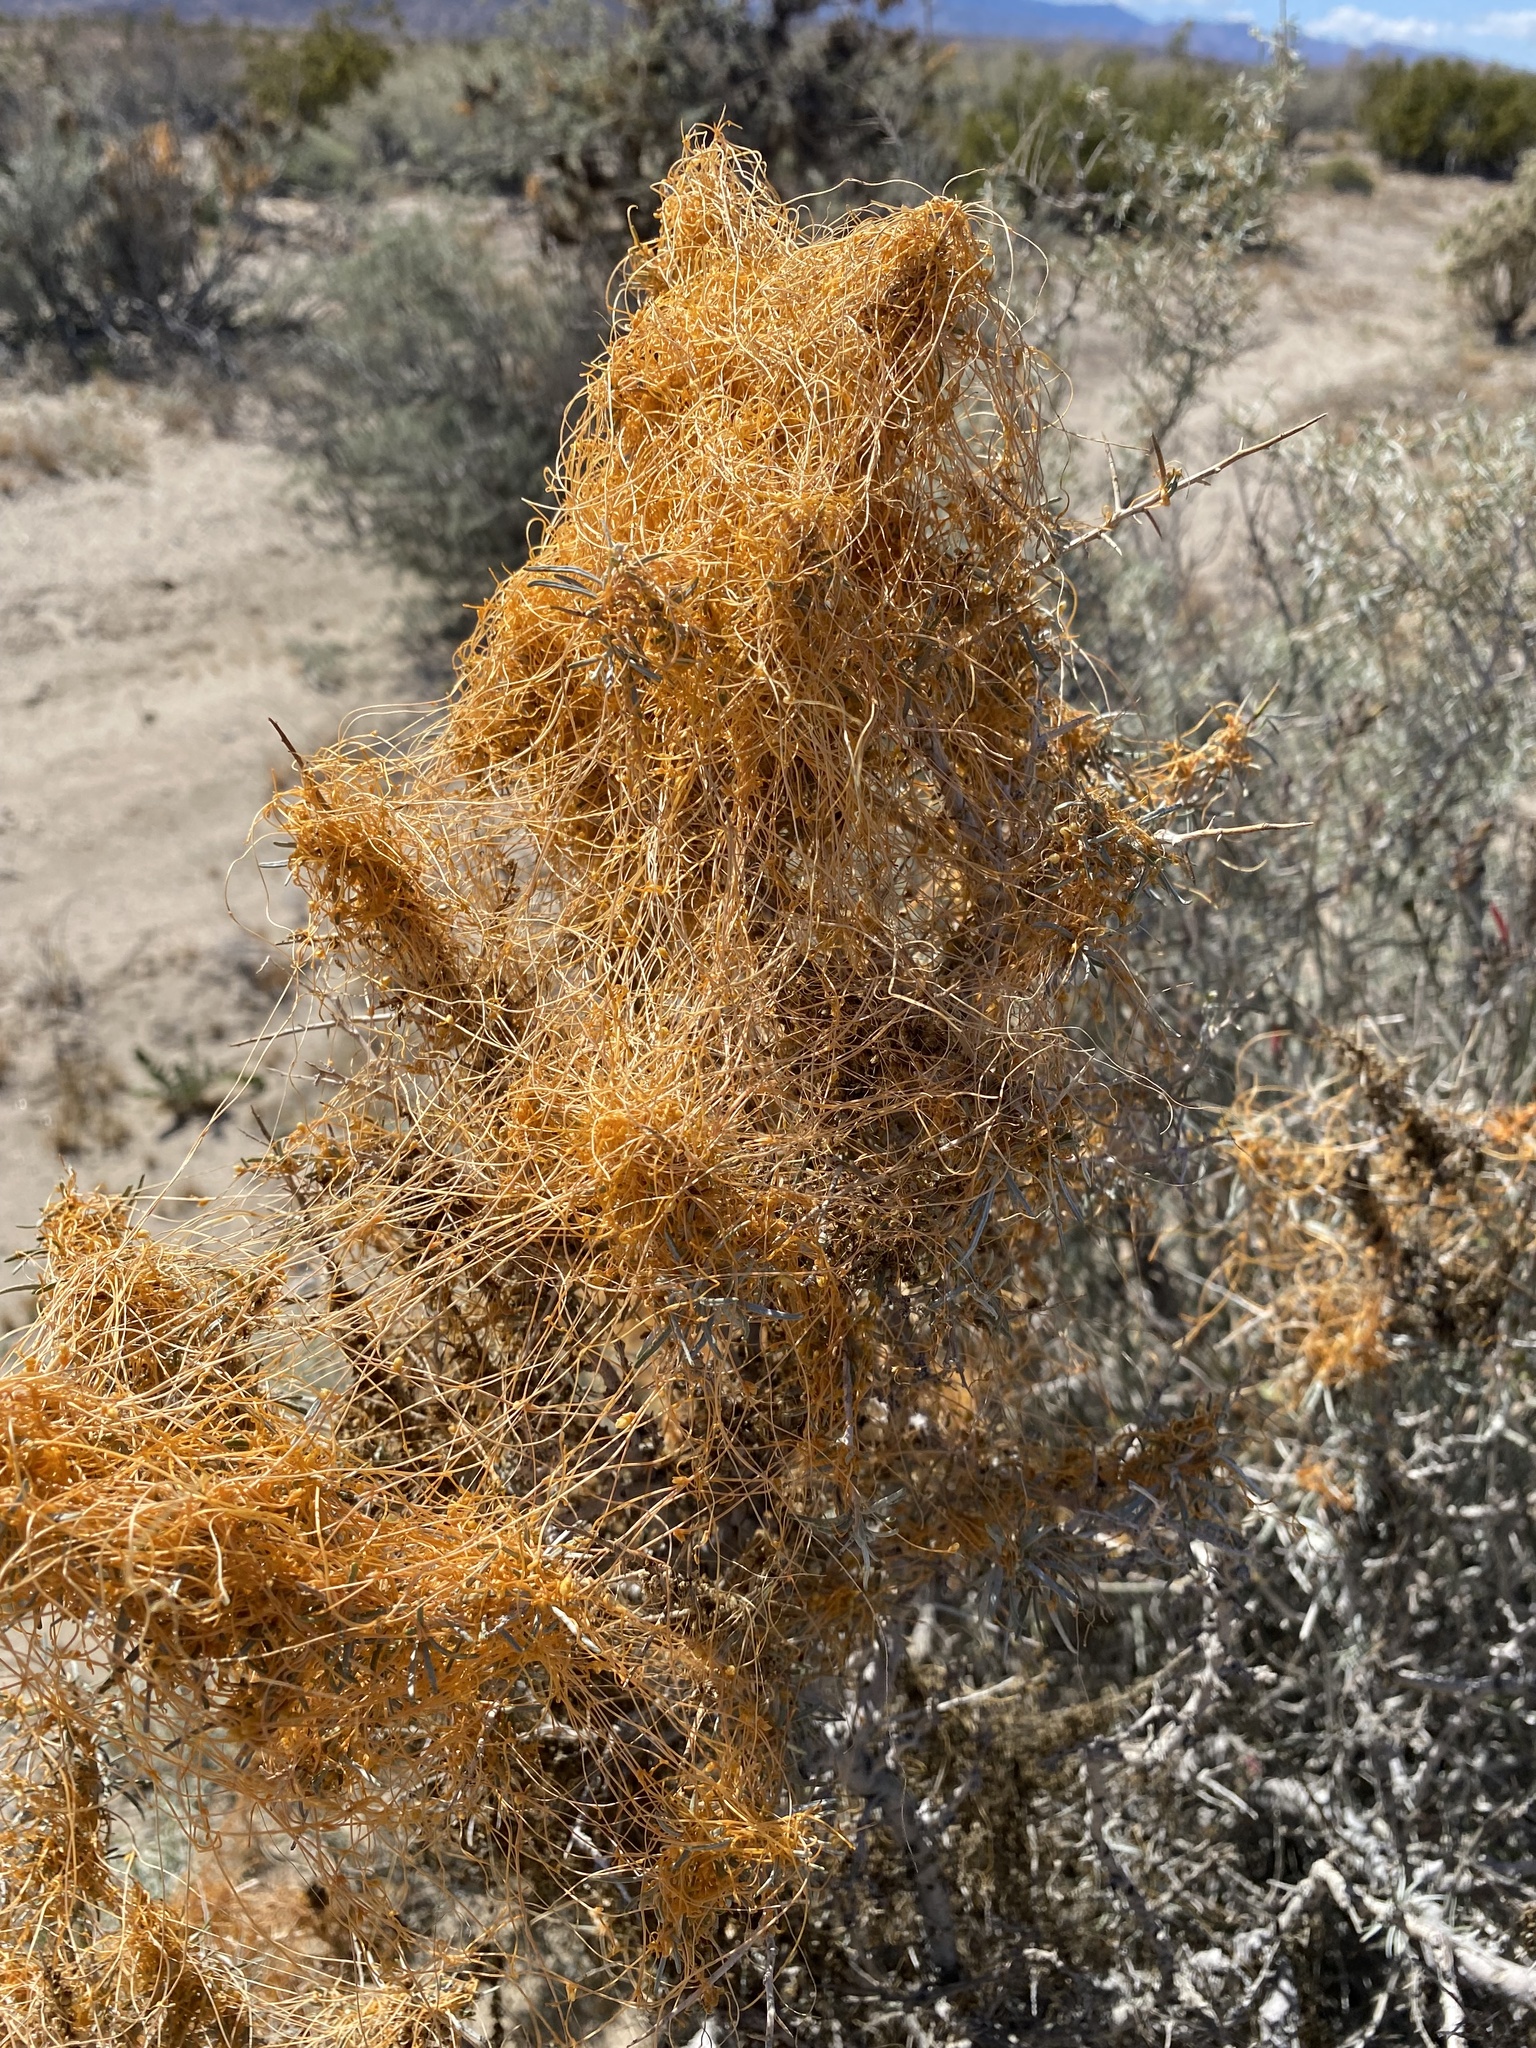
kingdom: Plantae
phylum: Tracheophyta
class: Magnoliopsida
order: Solanales
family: Convolvulaceae
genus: Cuscuta
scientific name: Cuscuta psorothamnensis
